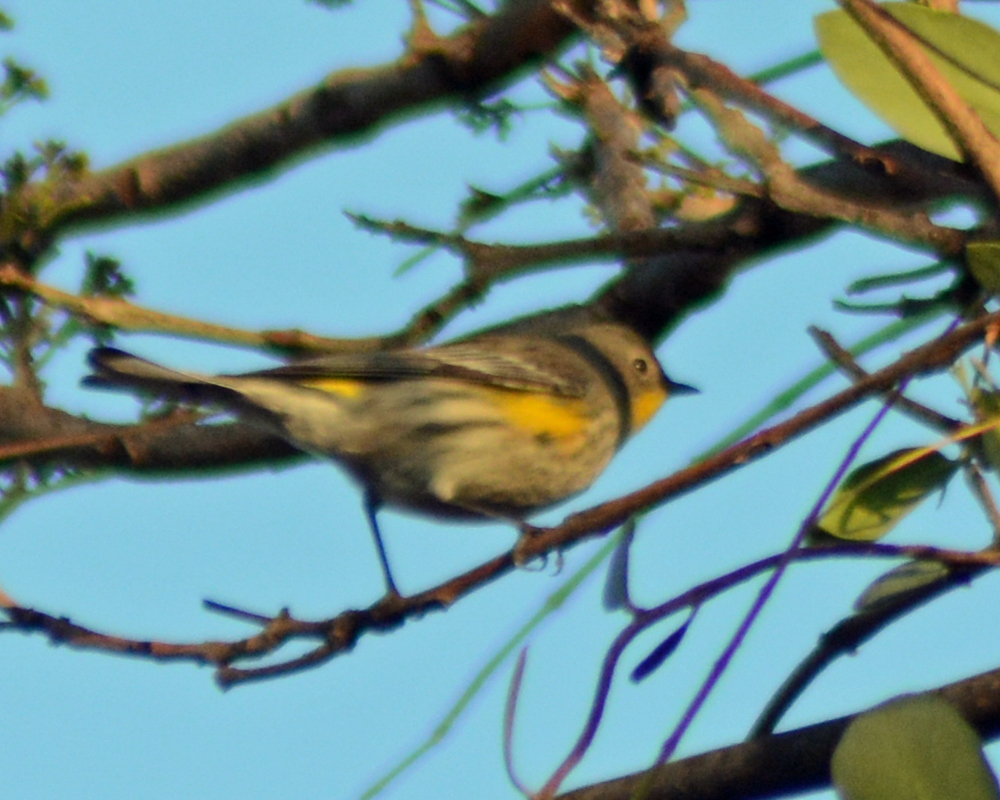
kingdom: Animalia
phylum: Chordata
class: Aves
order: Passeriformes
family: Parulidae
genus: Setophaga
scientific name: Setophaga coronata
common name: Myrtle warbler
